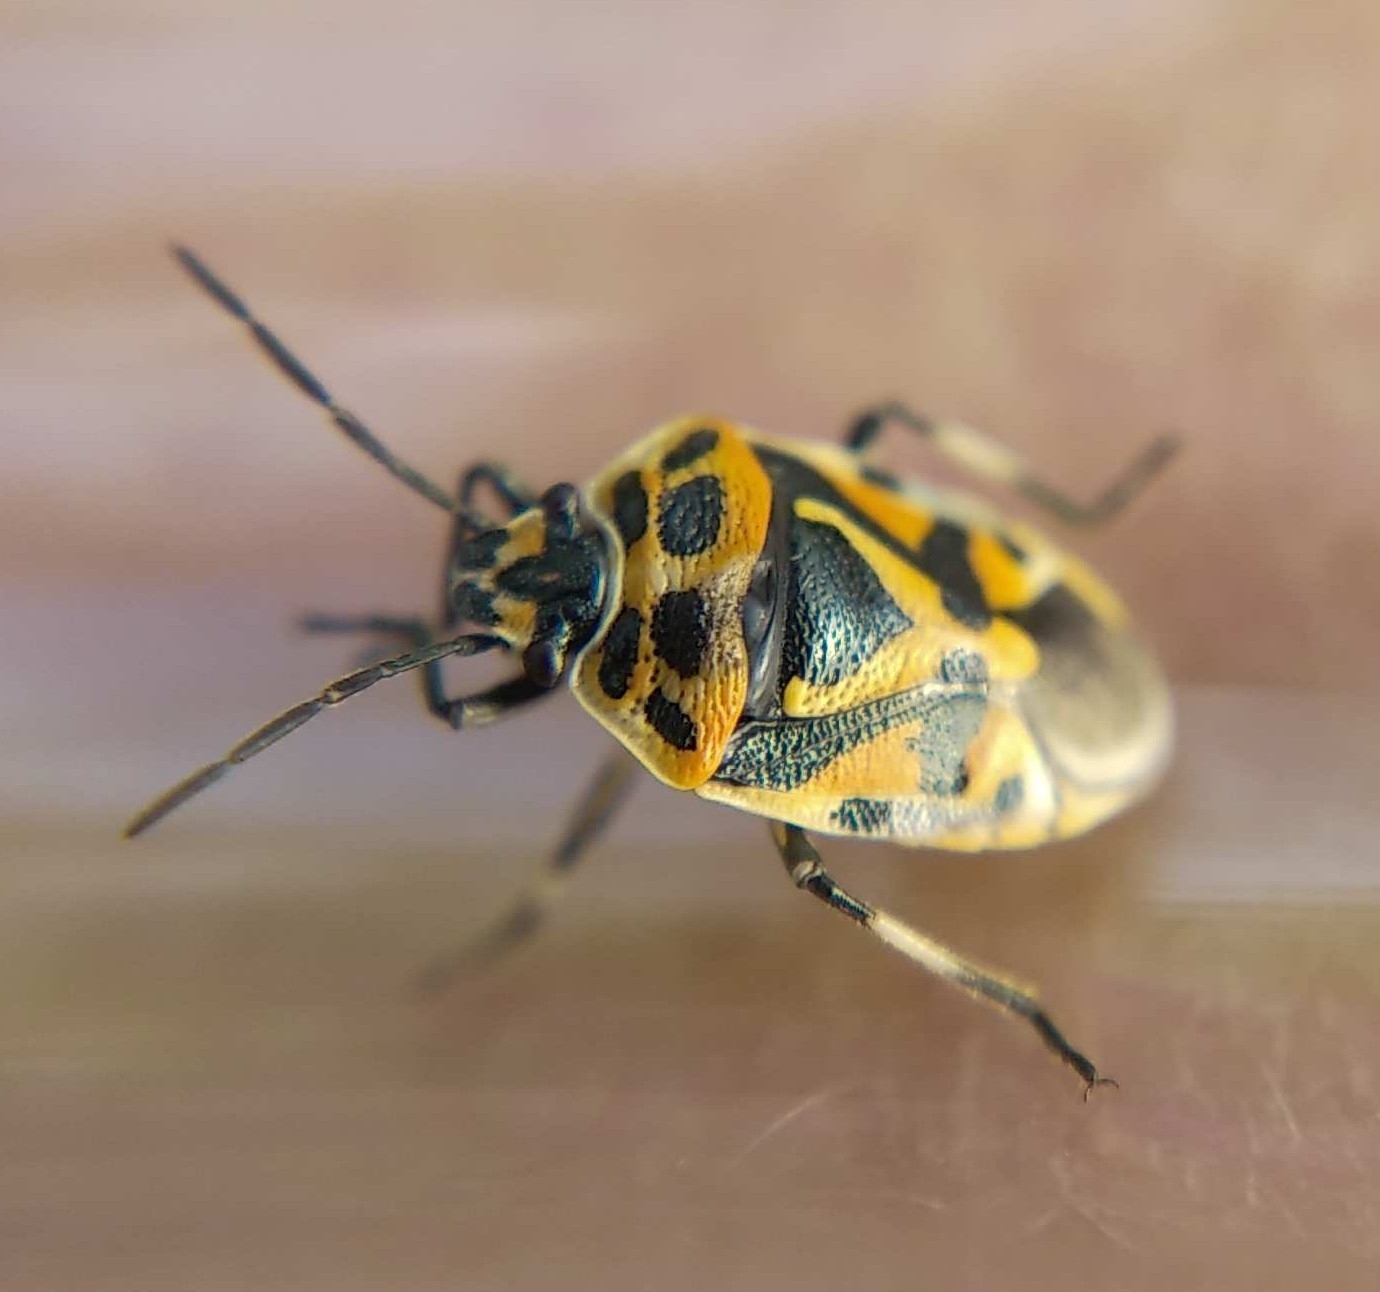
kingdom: Animalia
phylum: Arthropoda
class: Insecta
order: Hemiptera
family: Pentatomidae
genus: Eurydema
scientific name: Eurydema ornata
